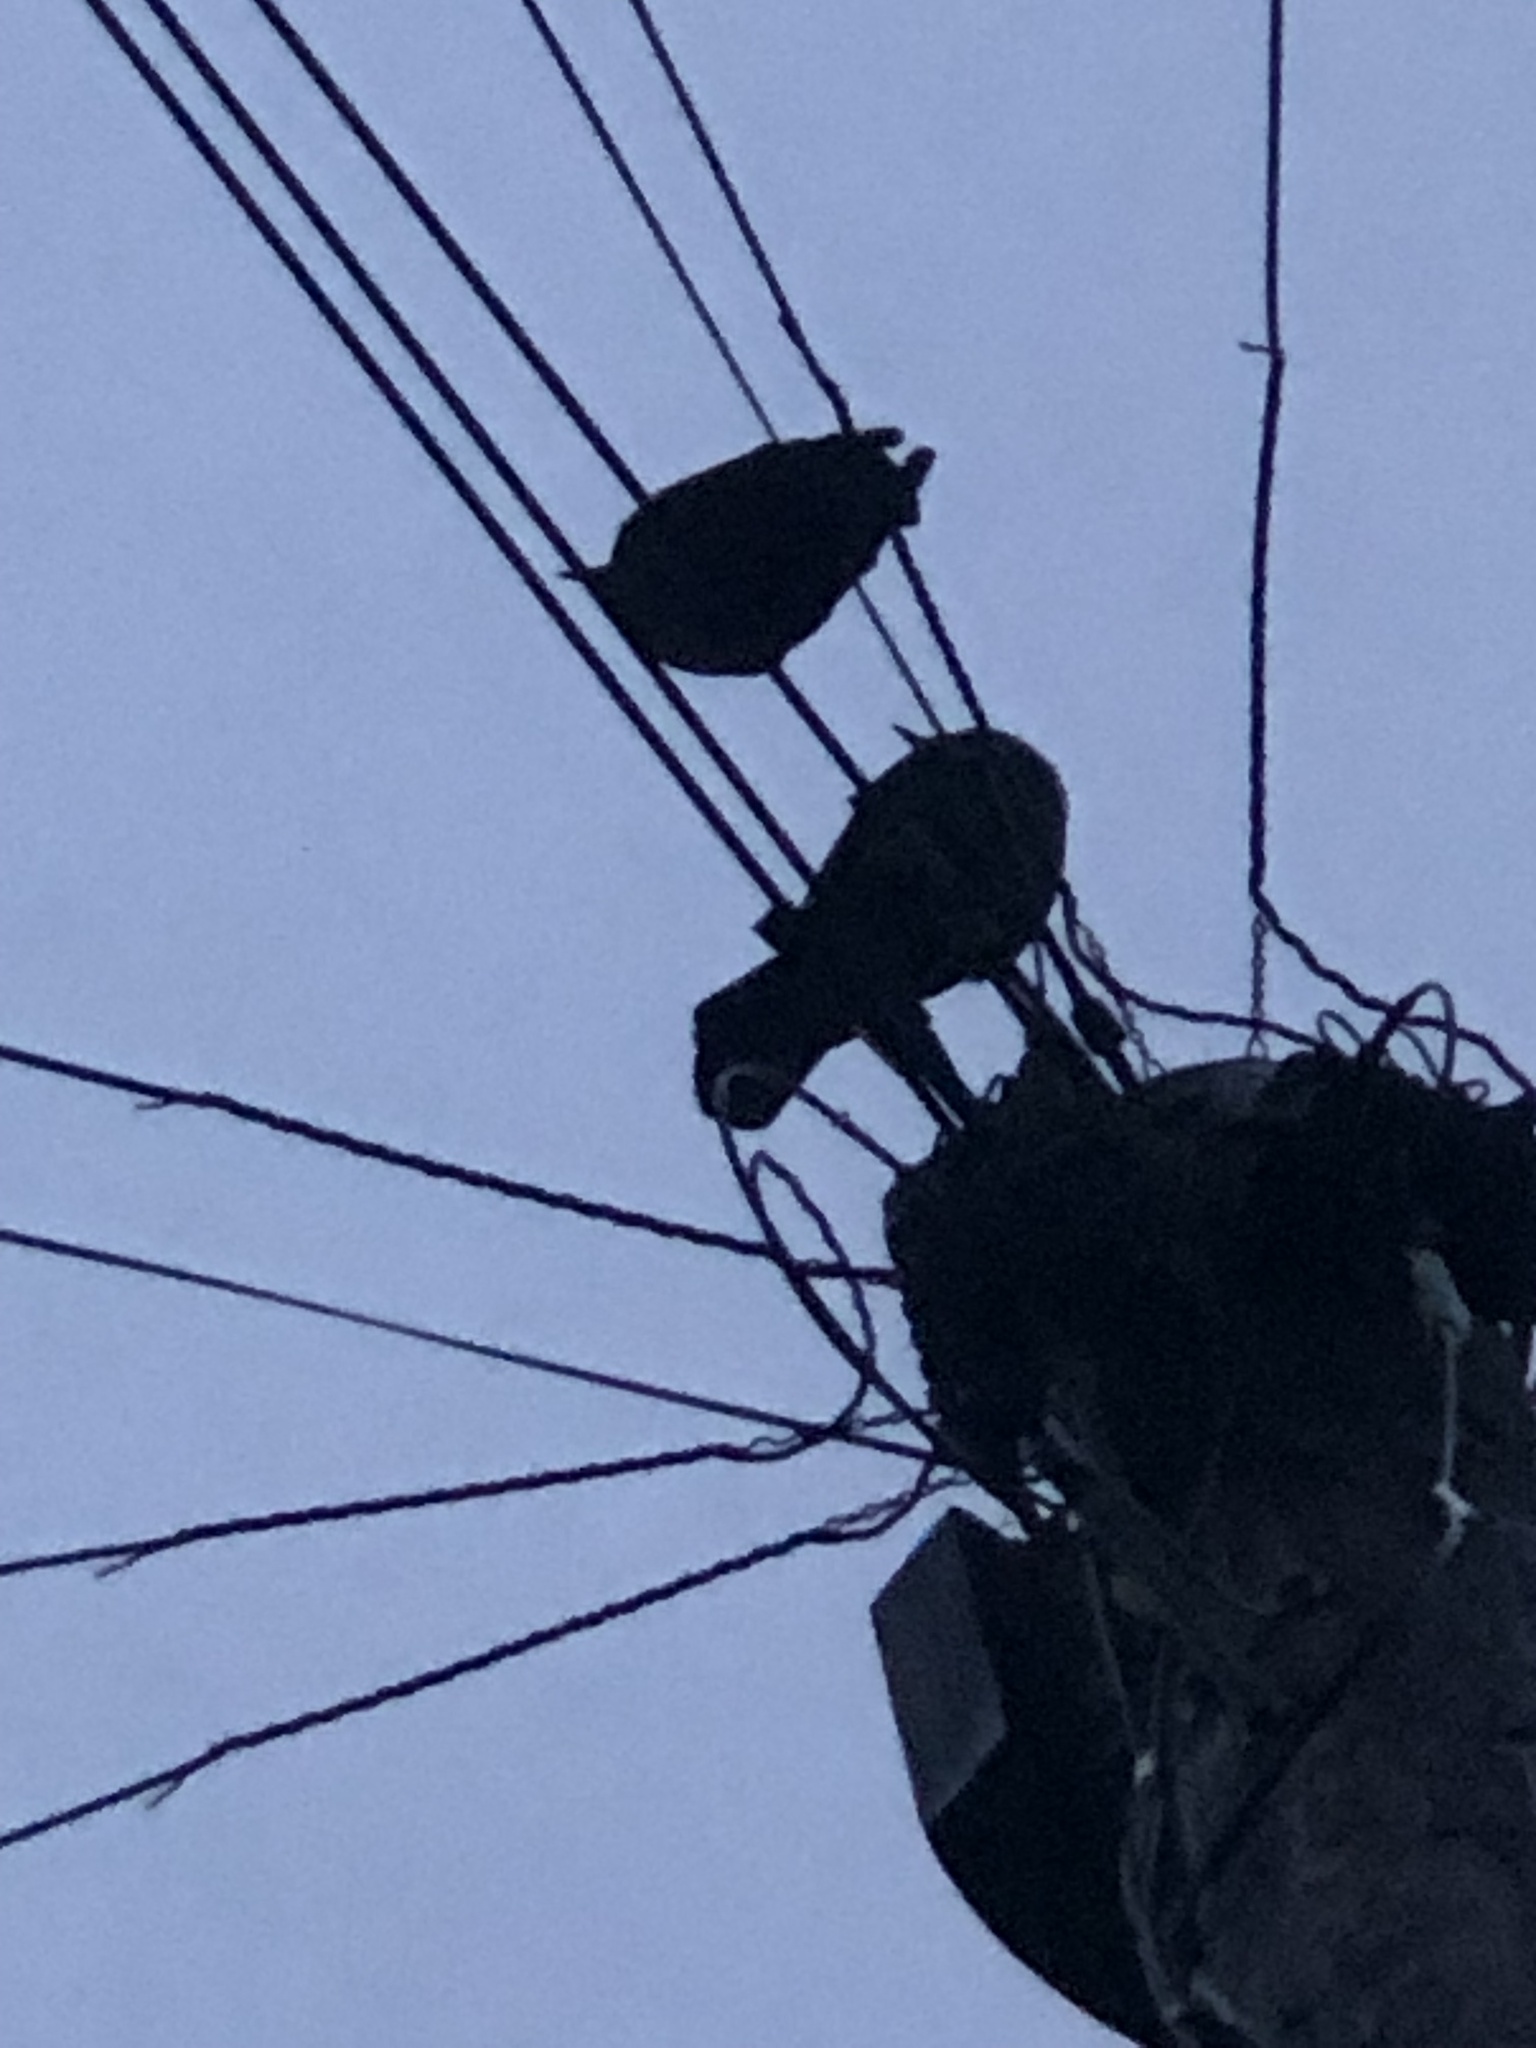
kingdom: Animalia
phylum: Chordata
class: Aves
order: Passeriformes
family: Turdidae
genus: Turdus
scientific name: Turdus merula
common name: Common blackbird
